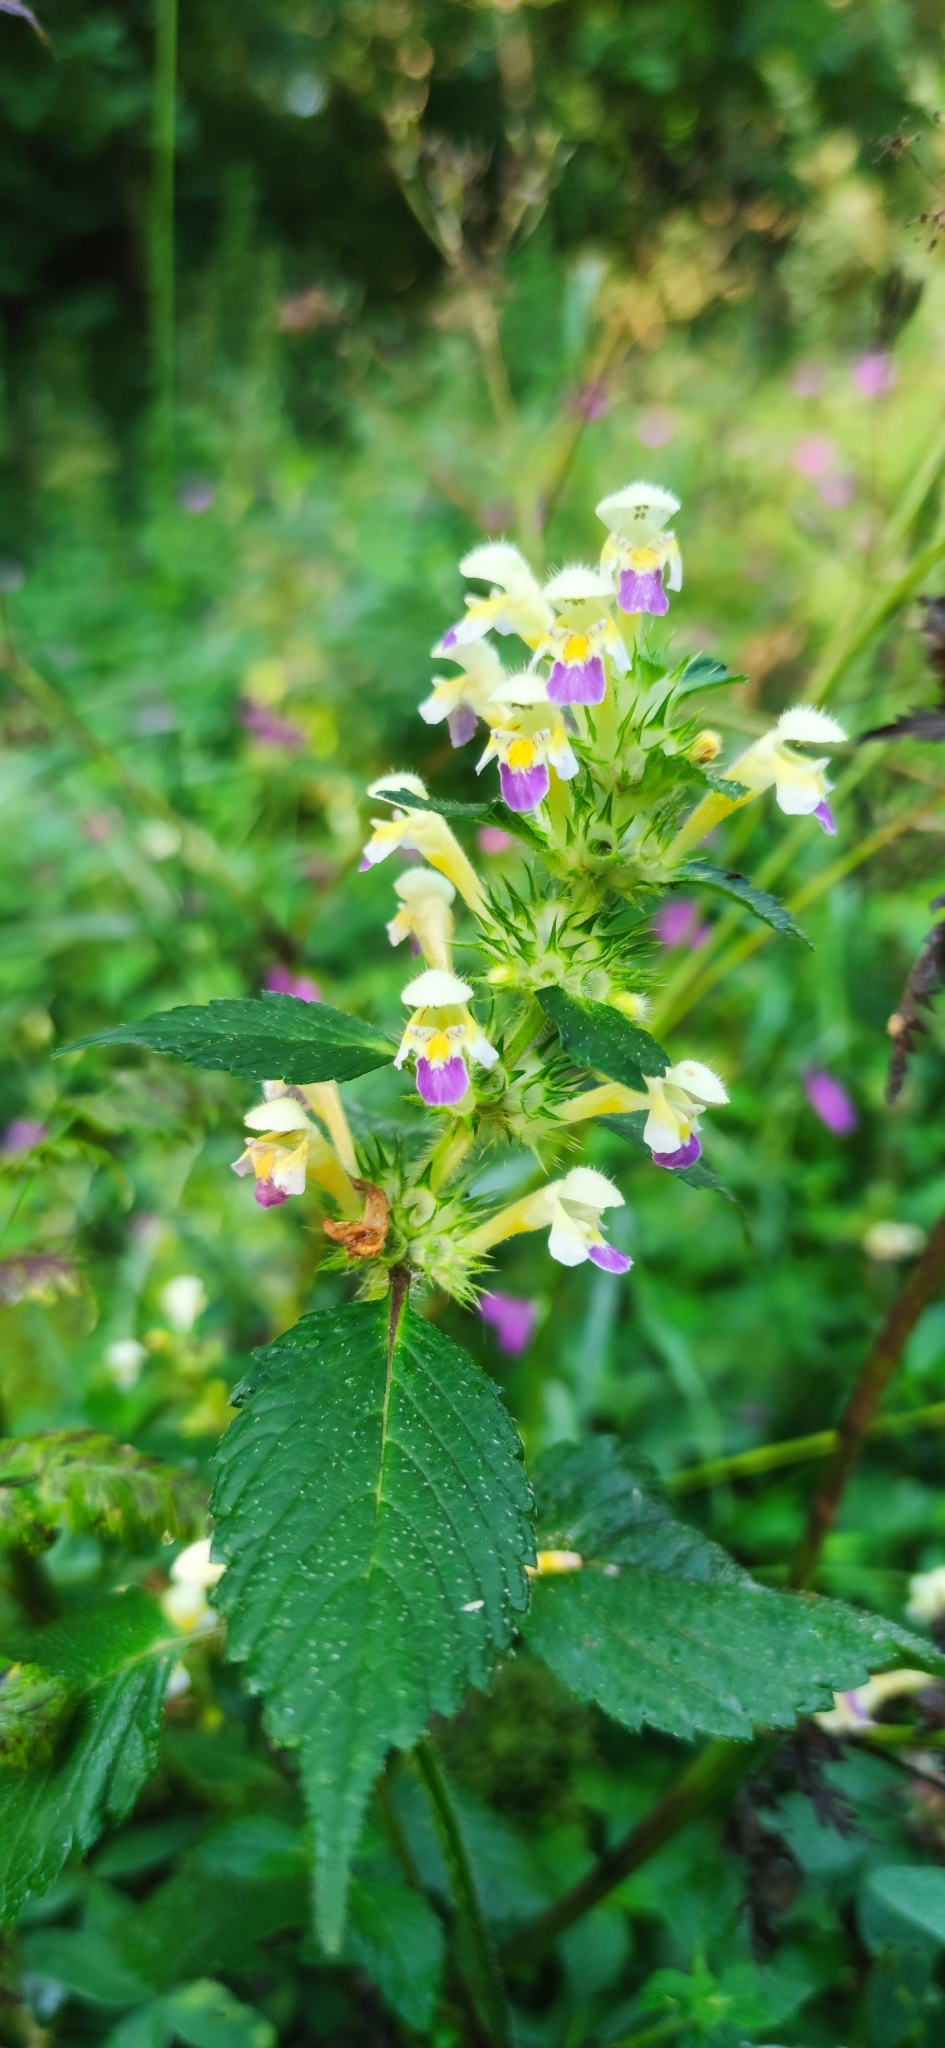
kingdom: Plantae
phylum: Tracheophyta
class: Magnoliopsida
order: Lamiales
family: Lamiaceae
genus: Galeopsis
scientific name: Galeopsis speciosa
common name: Large-flowered hemp-nettle
